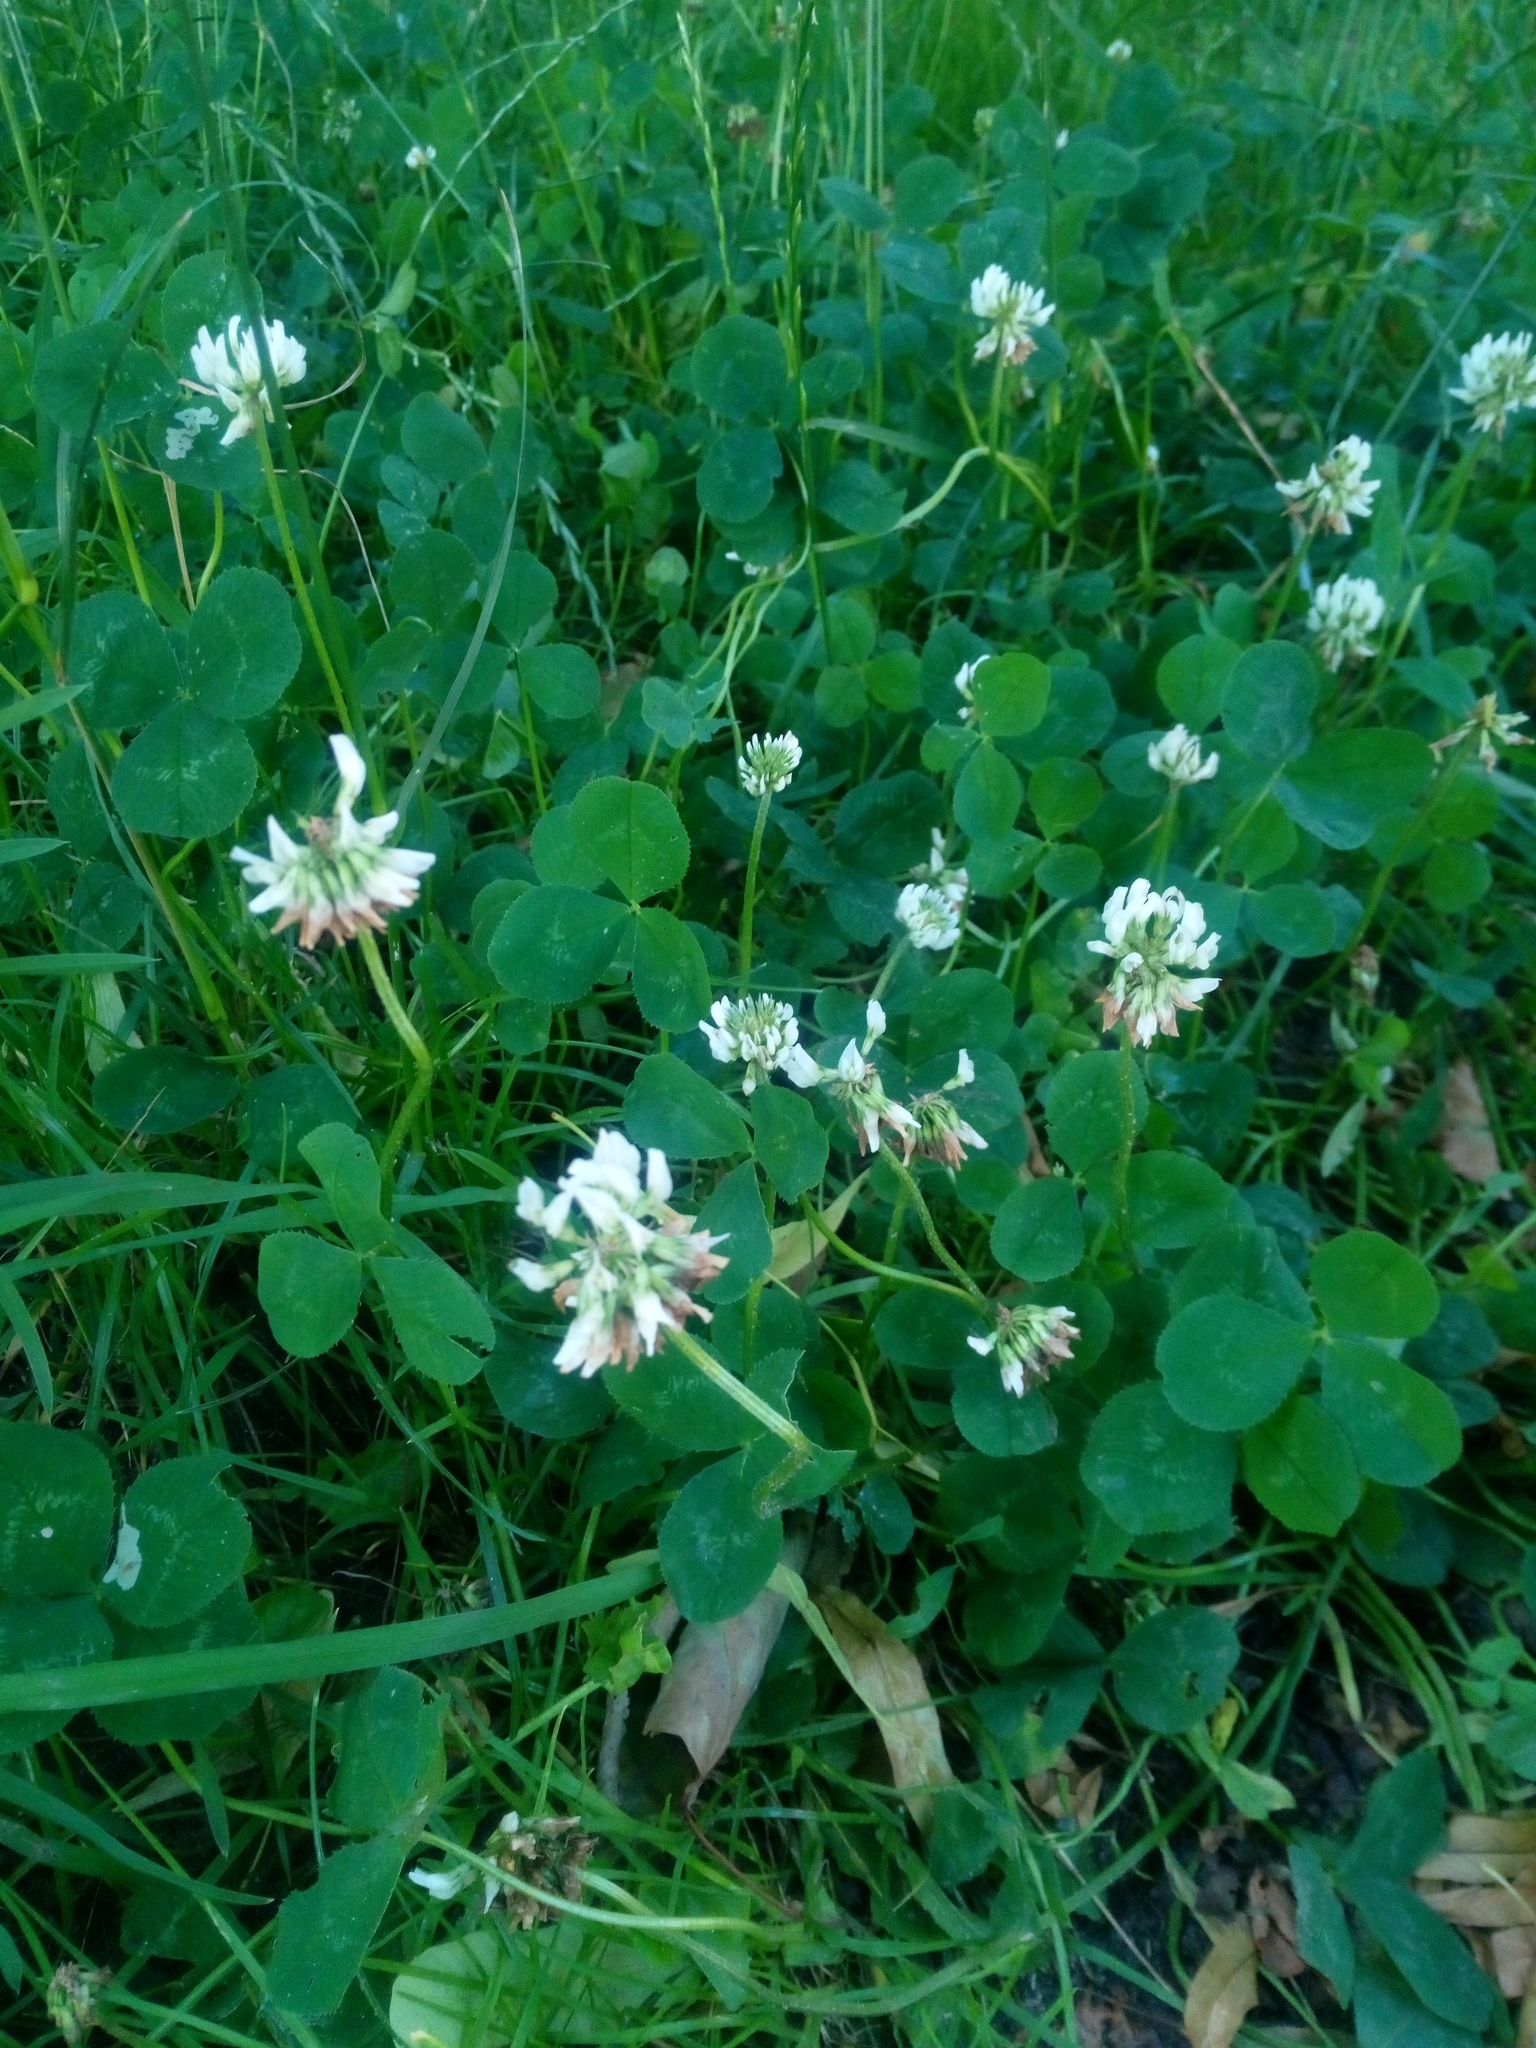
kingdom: Plantae
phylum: Tracheophyta
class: Magnoliopsida
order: Fabales
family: Fabaceae
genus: Trifolium
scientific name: Trifolium repens
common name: White clover
